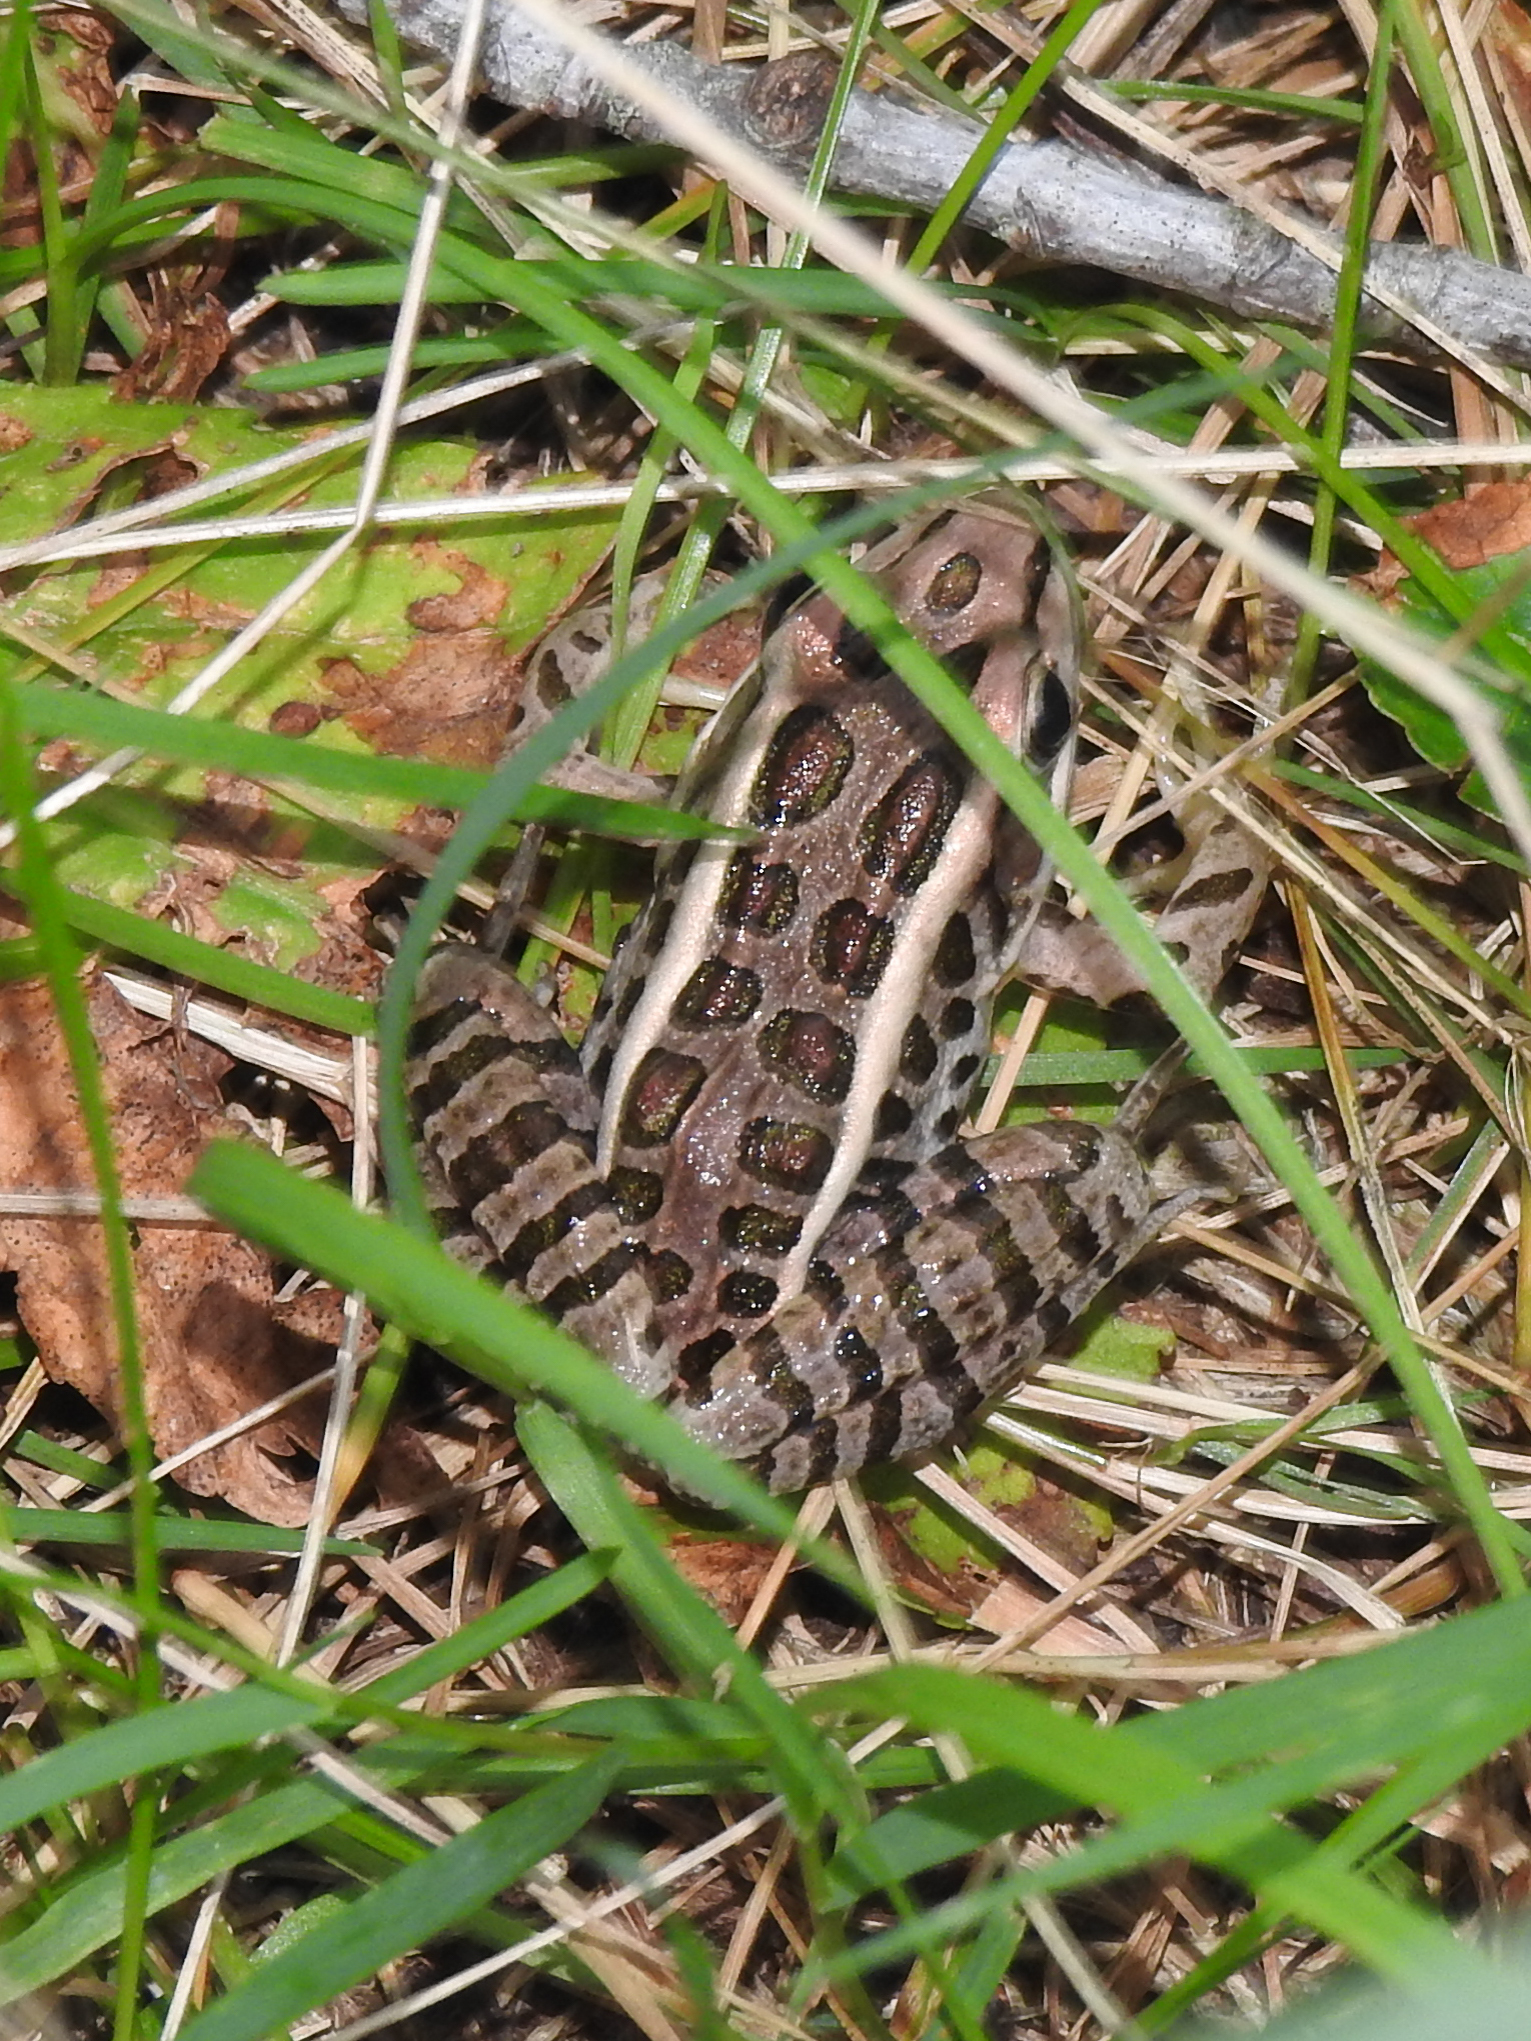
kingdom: Animalia
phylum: Chordata
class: Amphibia
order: Anura
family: Ranidae
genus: Lithobates
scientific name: Lithobates palustris
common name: Pickerel frog
